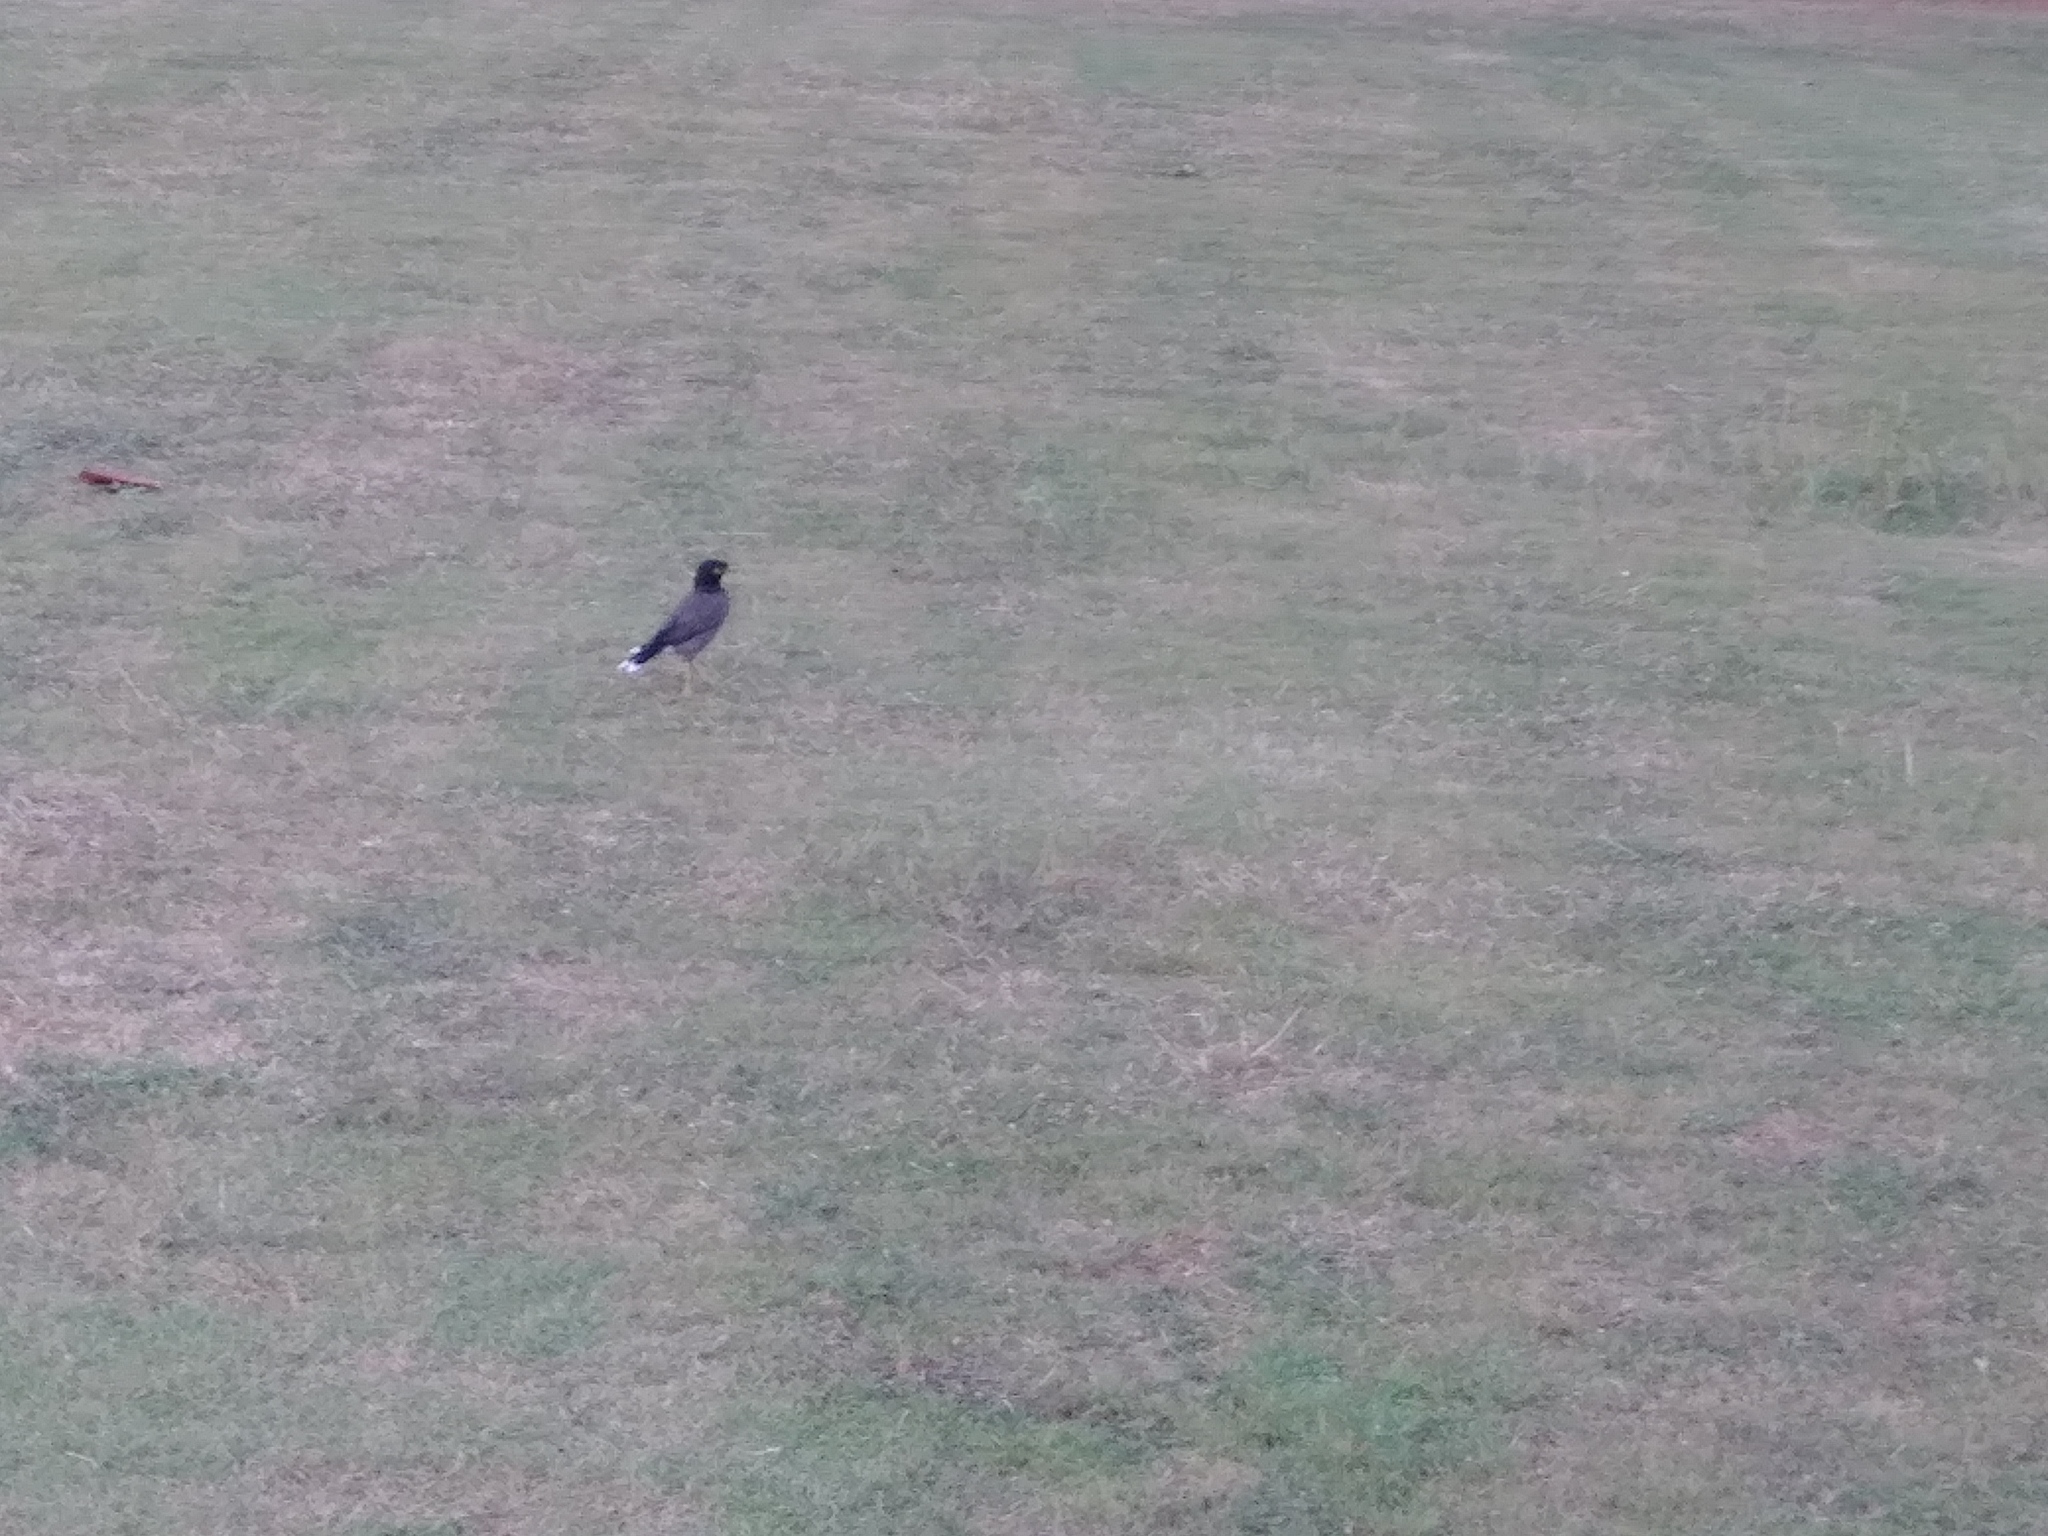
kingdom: Animalia
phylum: Chordata
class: Aves
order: Passeriformes
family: Sturnidae
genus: Acridotheres
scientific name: Acridotheres tristis
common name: Common myna
